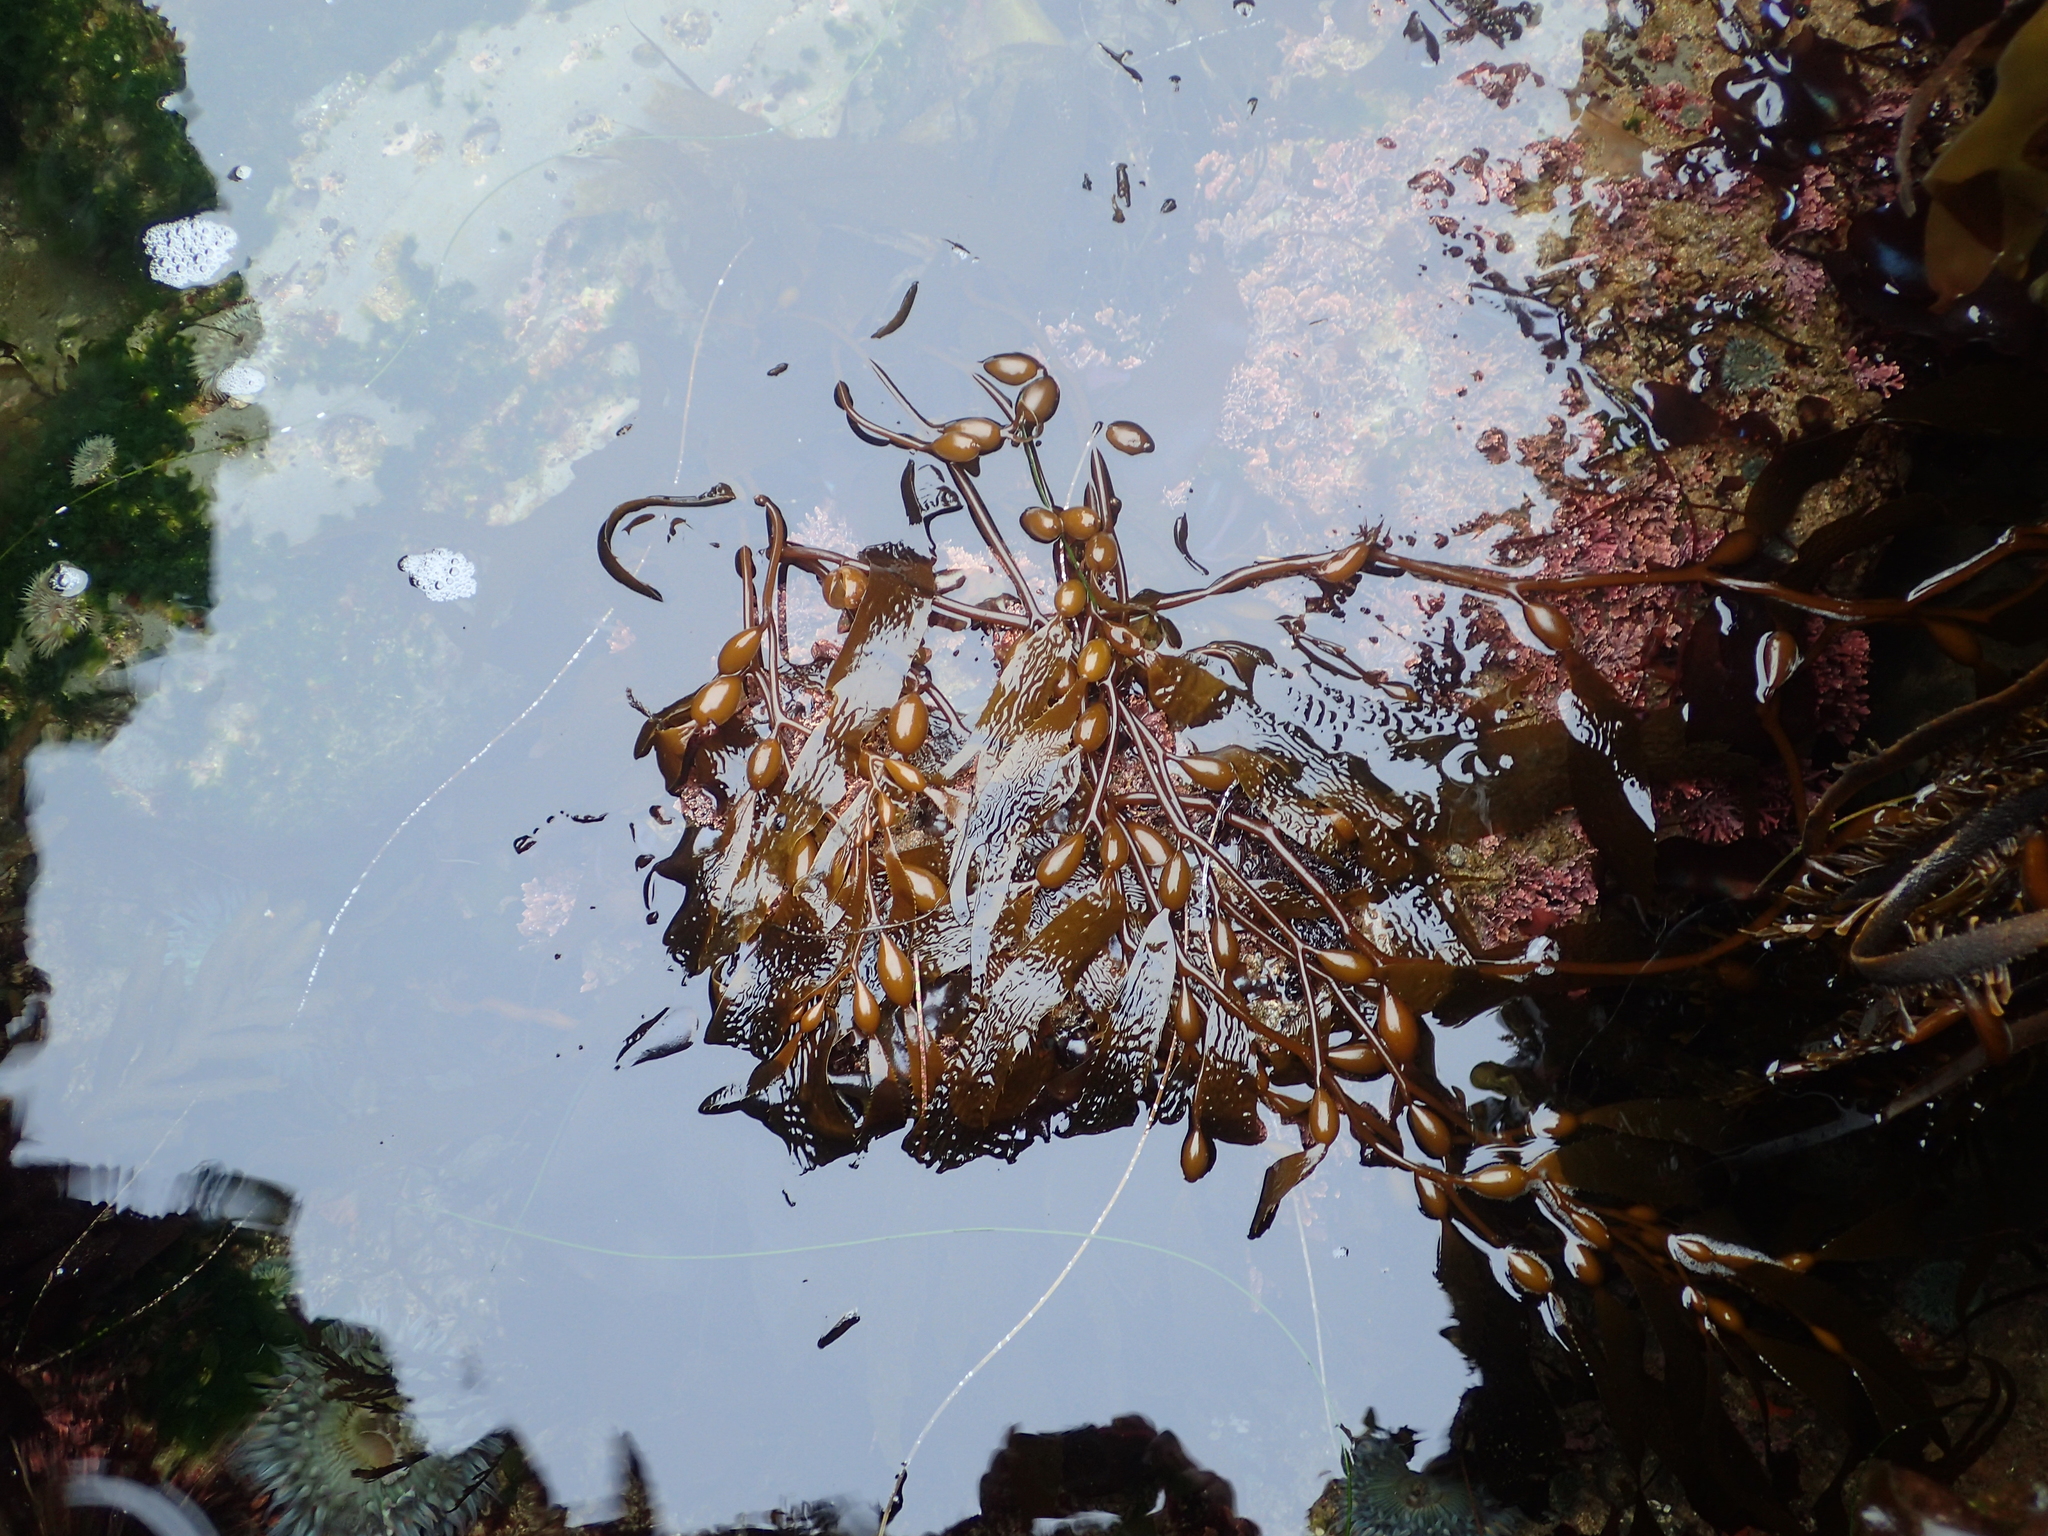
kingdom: Chromista
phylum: Ochrophyta
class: Phaeophyceae
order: Laminariales
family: Laminariaceae
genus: Macrocystis
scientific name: Macrocystis pyrifera
